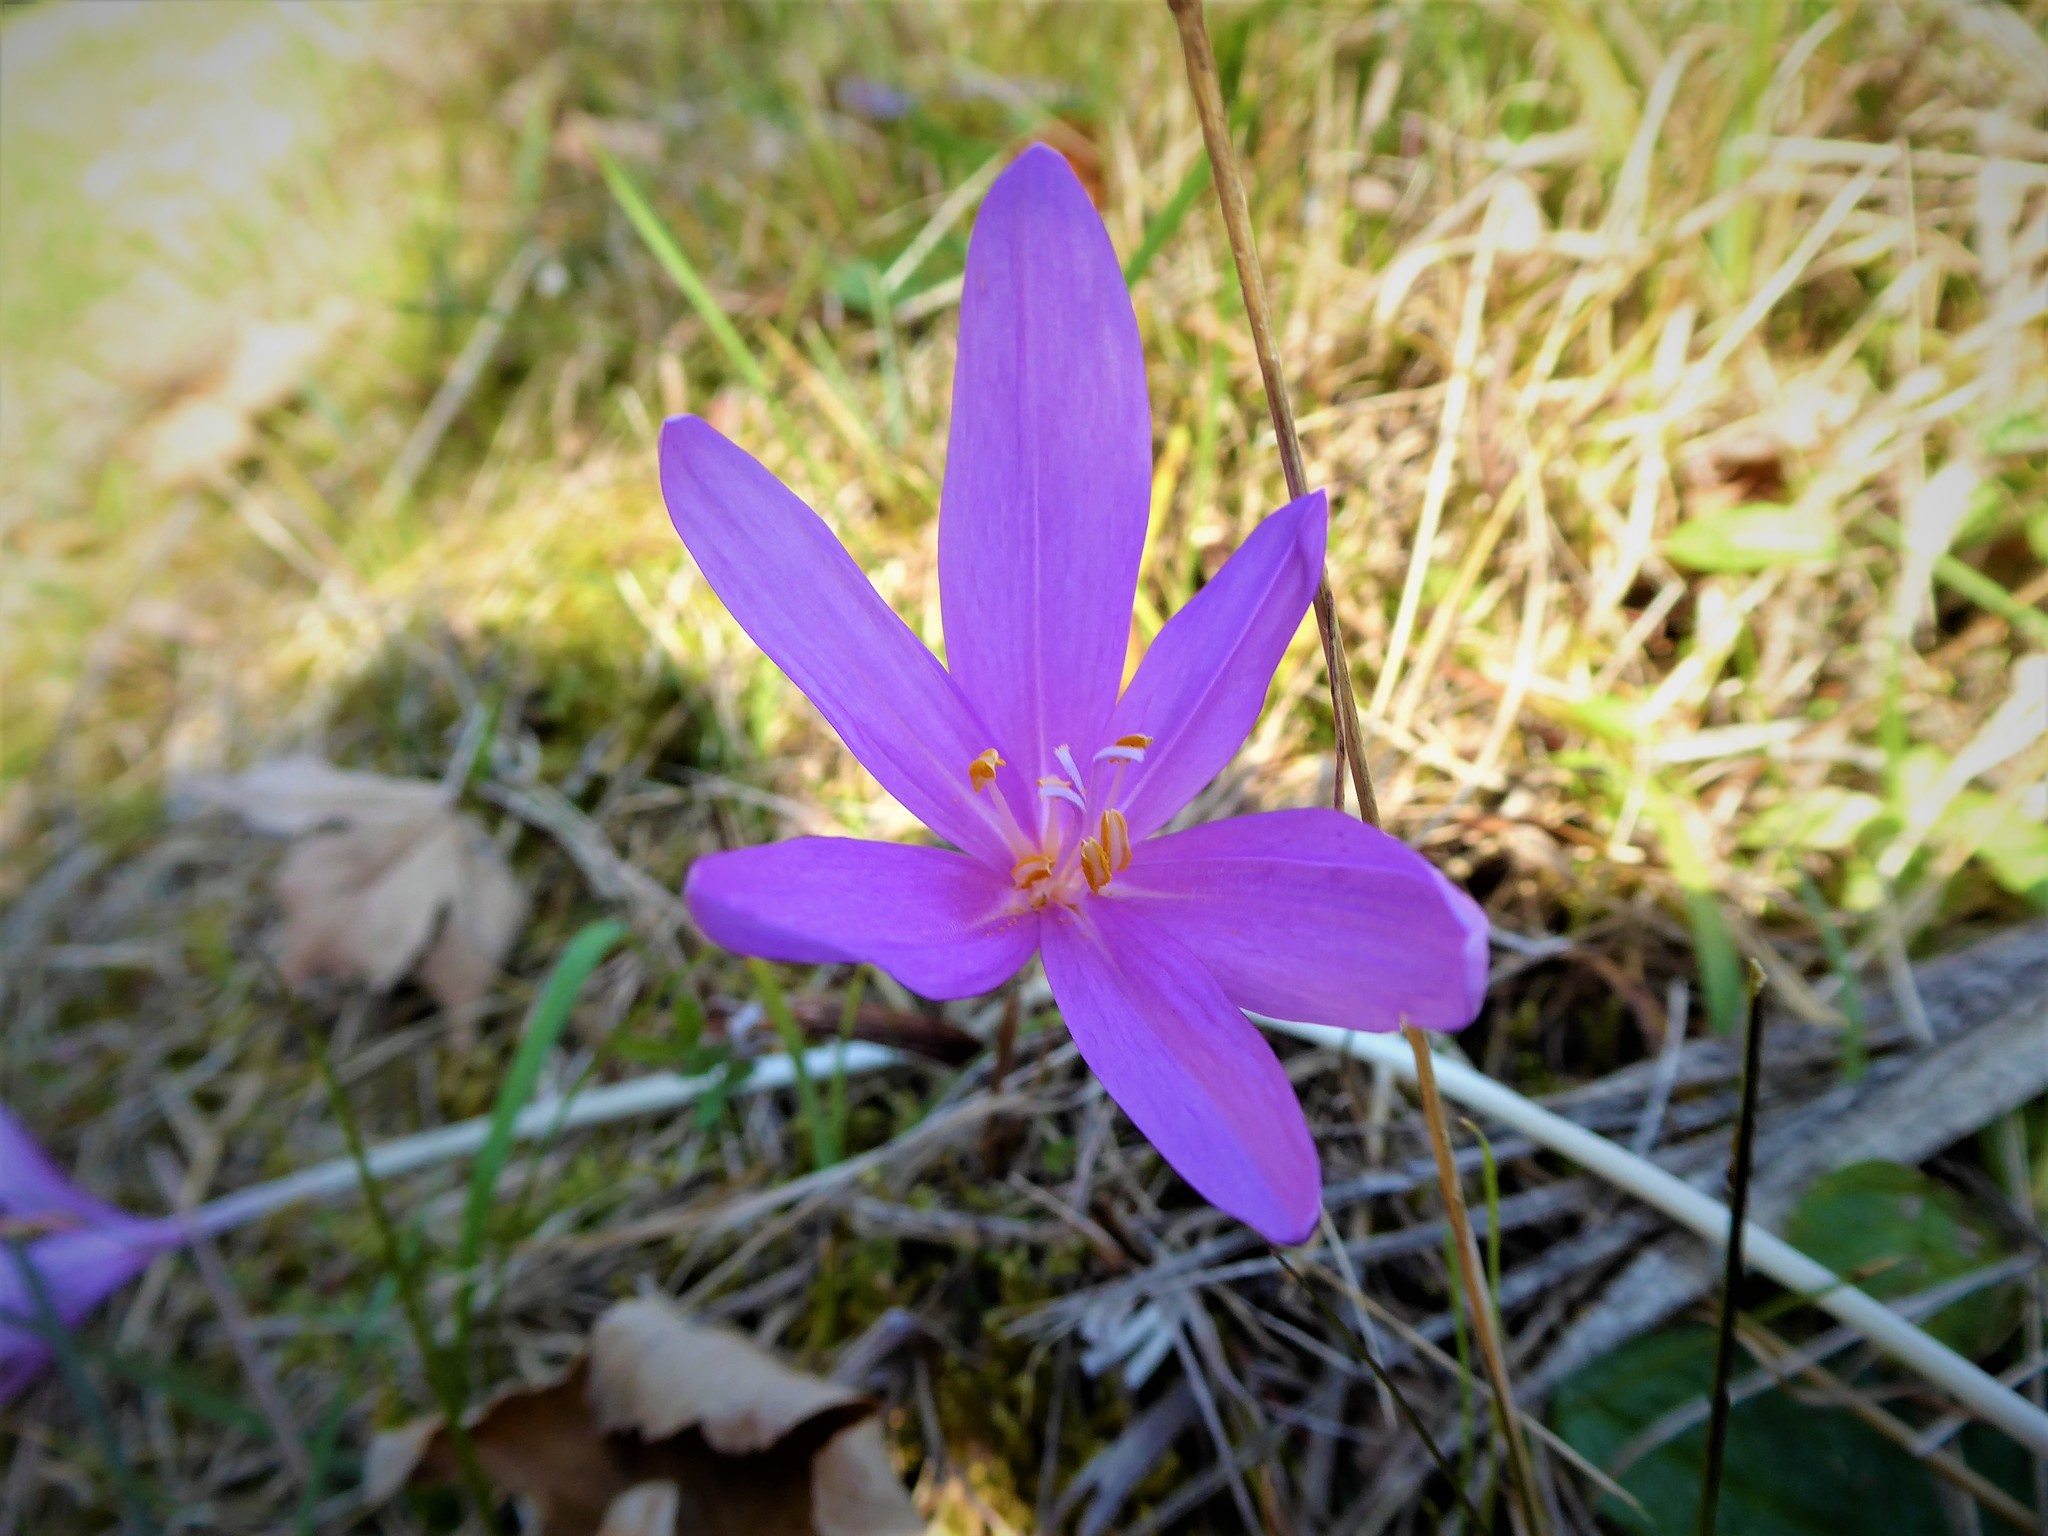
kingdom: Plantae
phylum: Tracheophyta
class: Liliopsida
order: Liliales
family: Colchicaceae
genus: Colchicum
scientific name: Colchicum autumnale
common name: Autumn crocus
